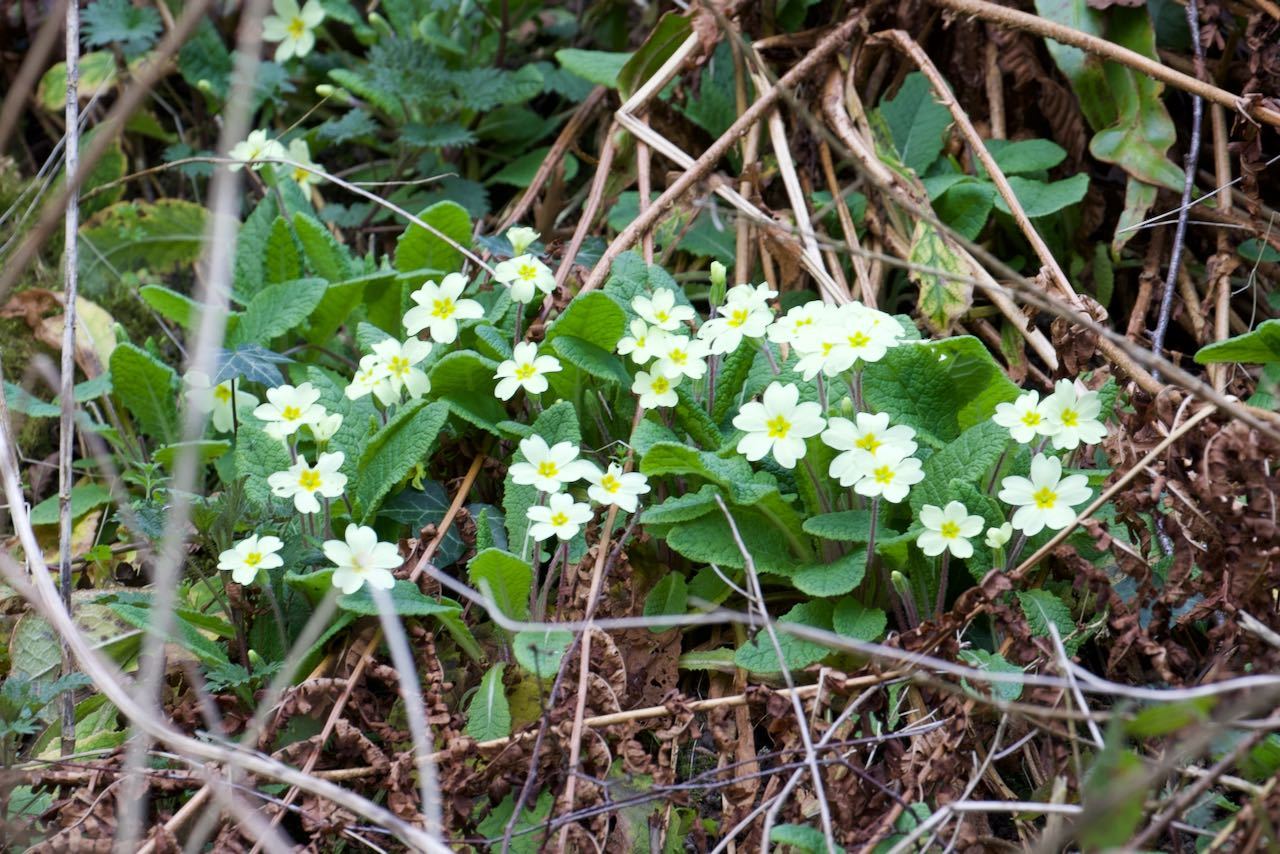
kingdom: Plantae
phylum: Tracheophyta
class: Magnoliopsida
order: Ericales
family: Primulaceae
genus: Primula
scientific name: Primula vulgaris
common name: Primrose
